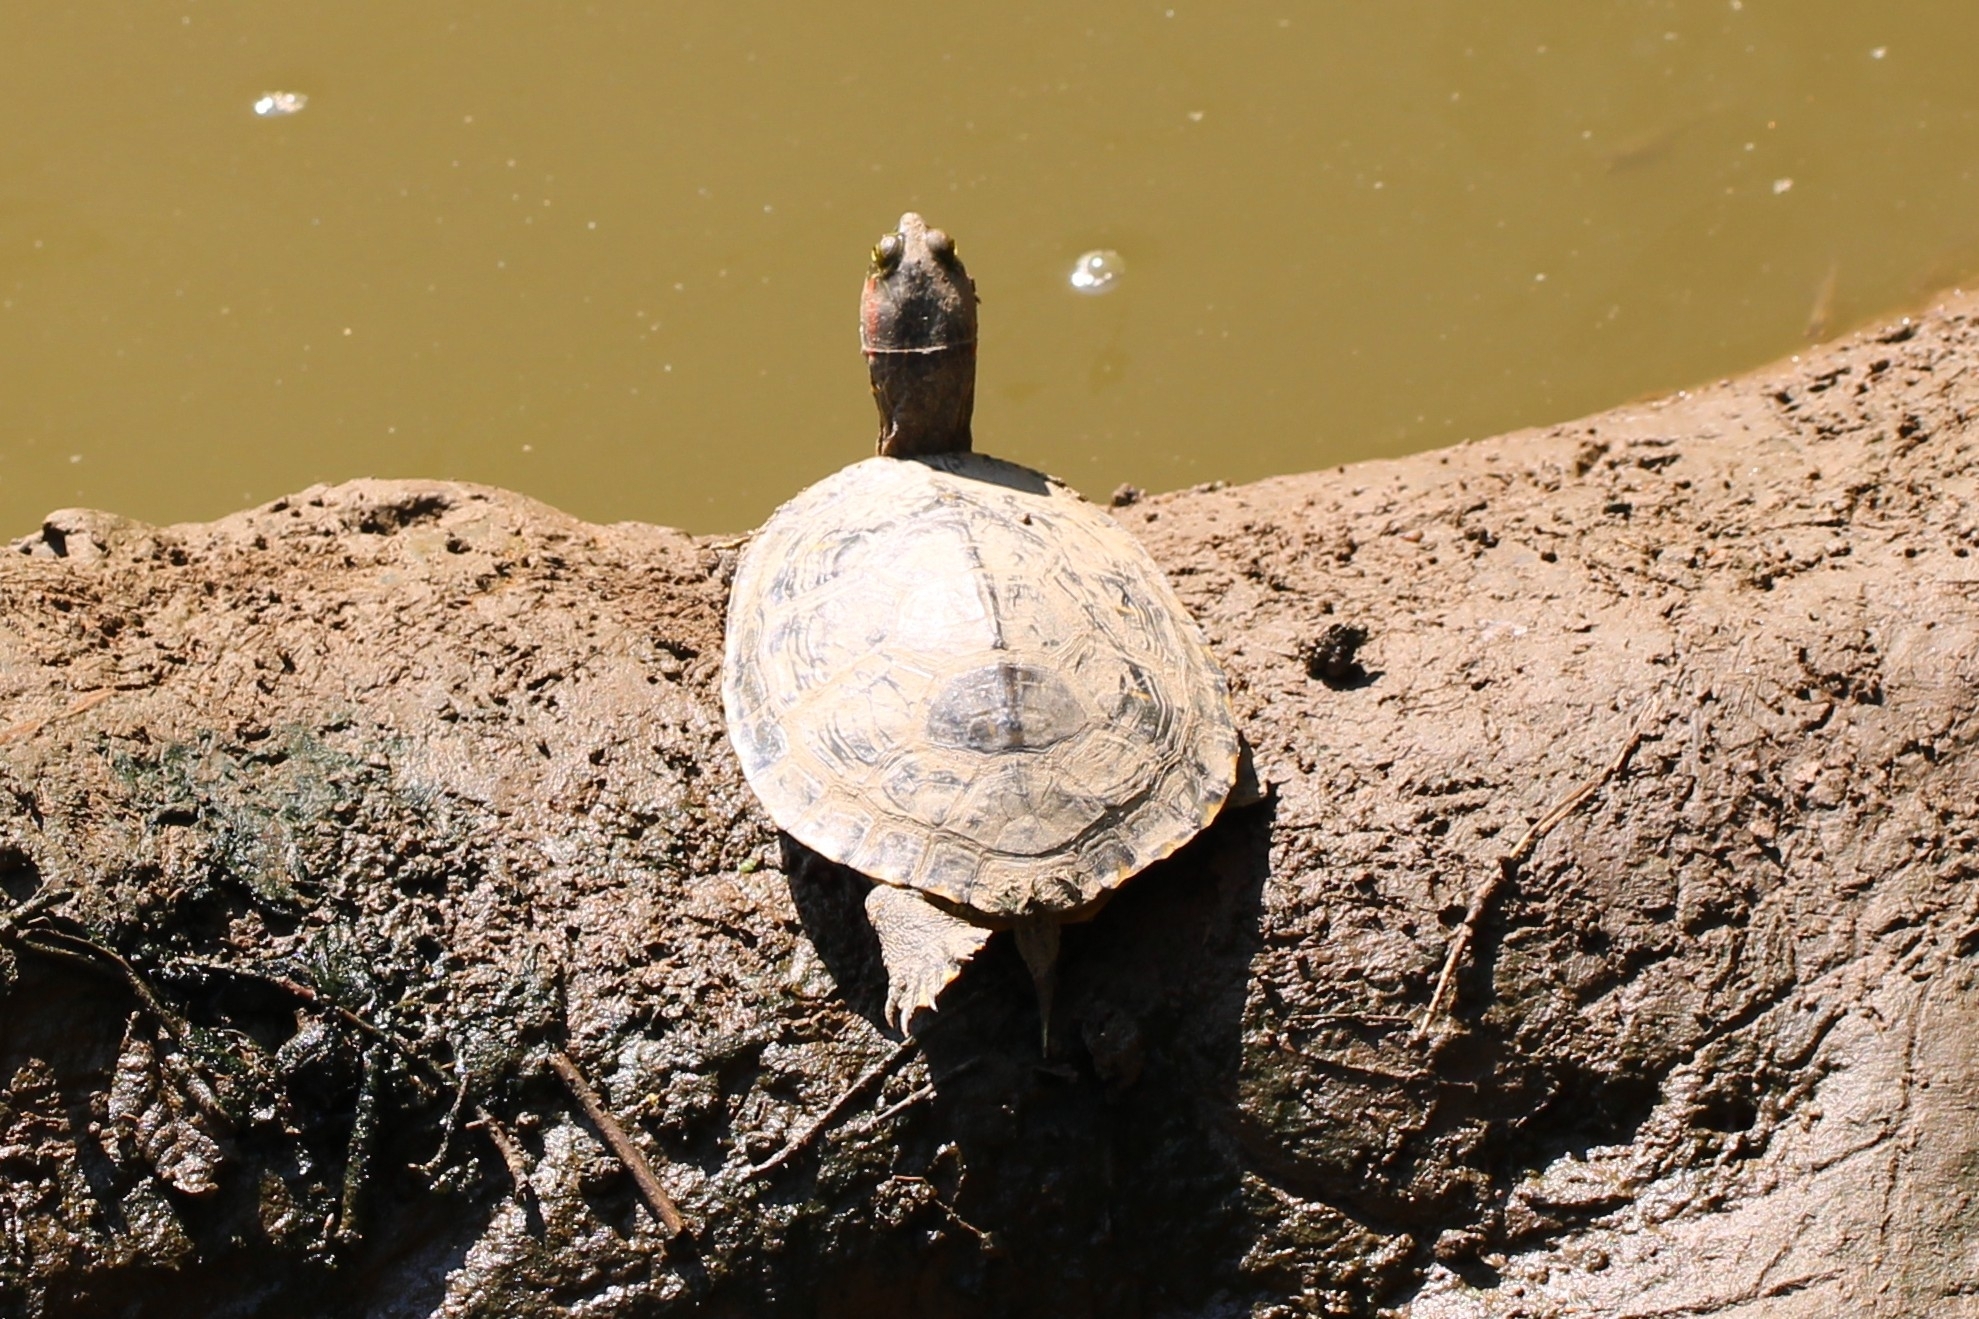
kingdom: Animalia
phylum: Chordata
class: Testudines
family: Emydidae
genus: Trachemys
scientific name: Trachemys scripta
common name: Slider
